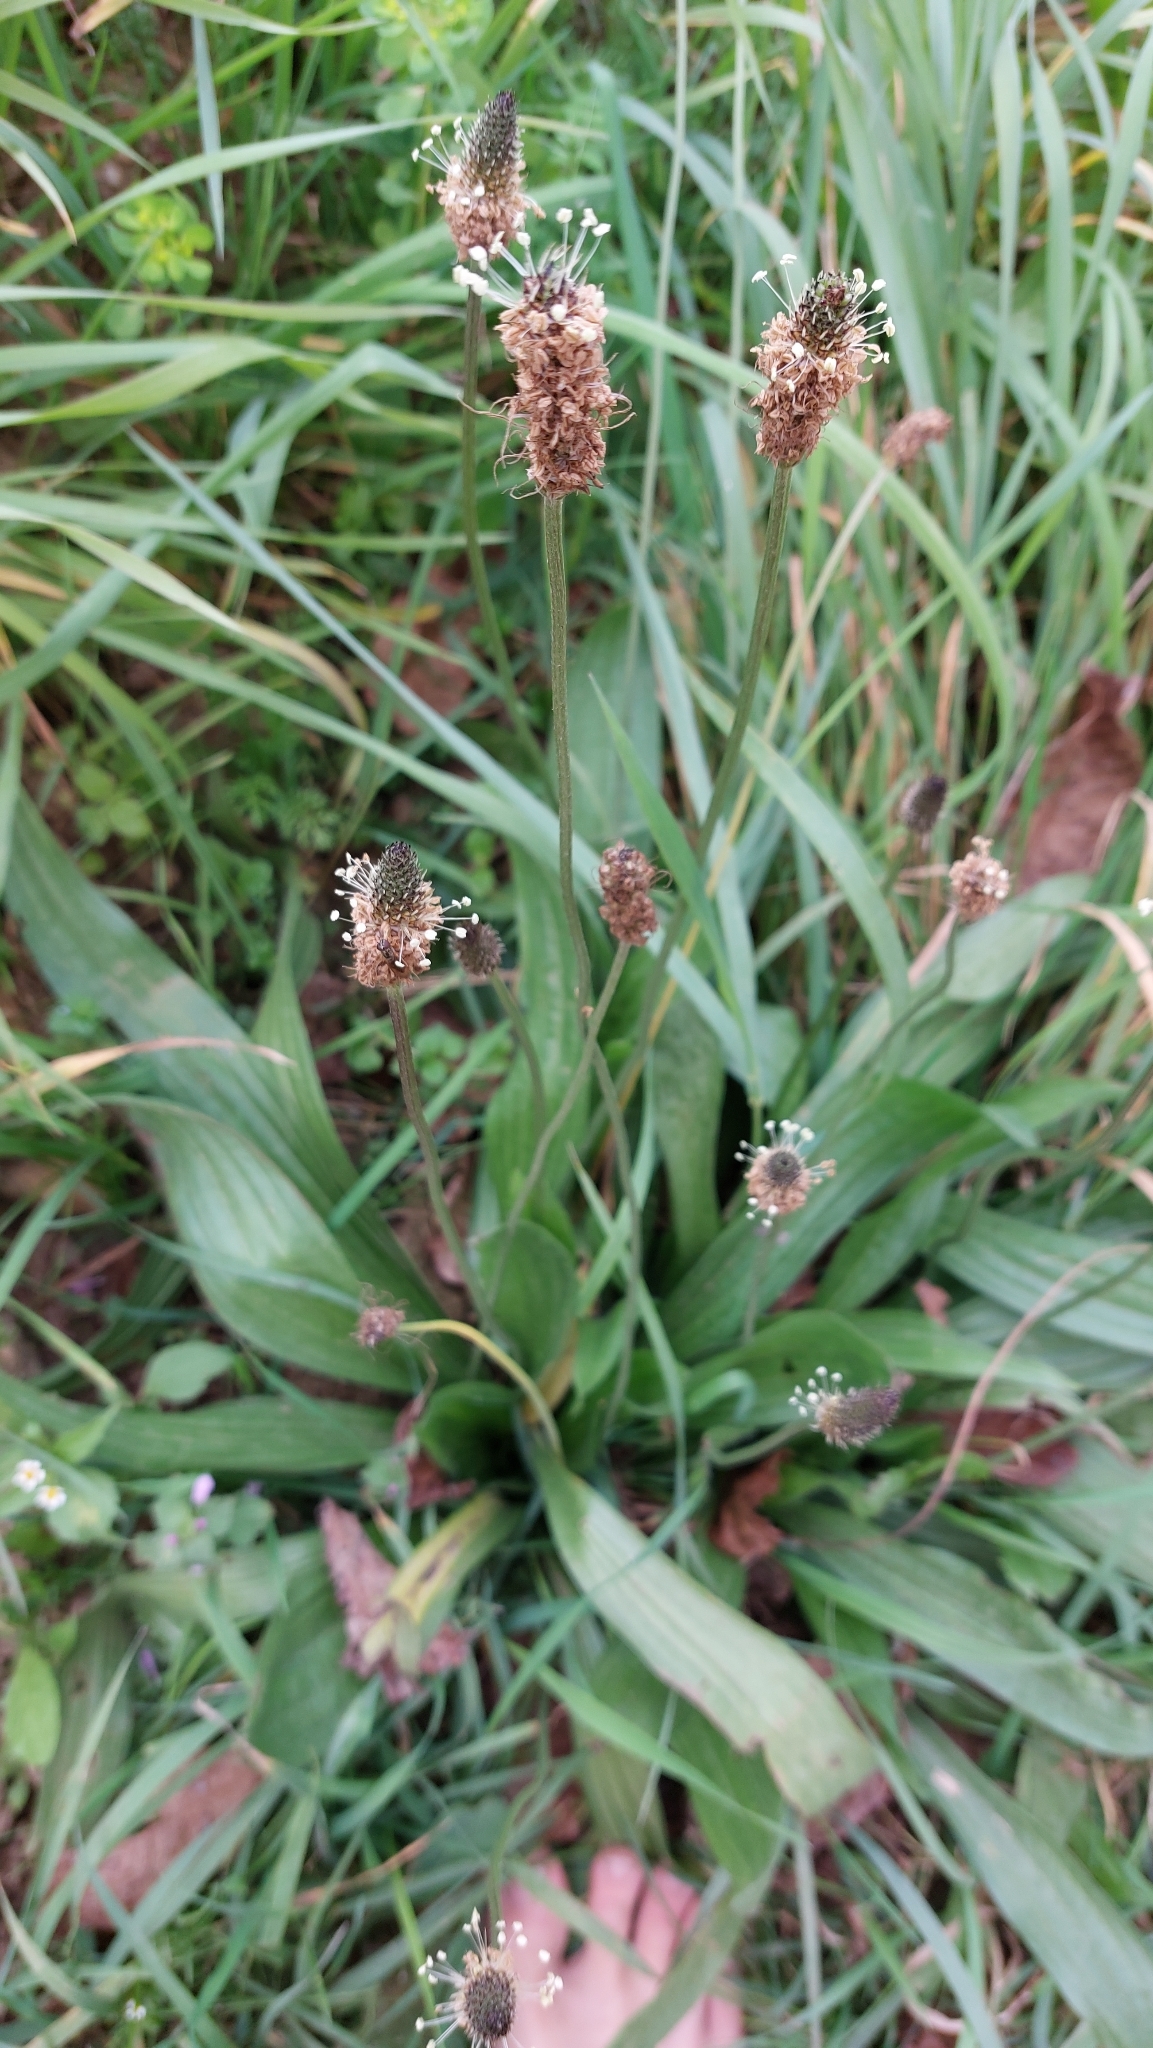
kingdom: Plantae
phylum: Tracheophyta
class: Magnoliopsida
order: Lamiales
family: Plantaginaceae
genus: Plantago
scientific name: Plantago lanceolata
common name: Ribwort plantain
